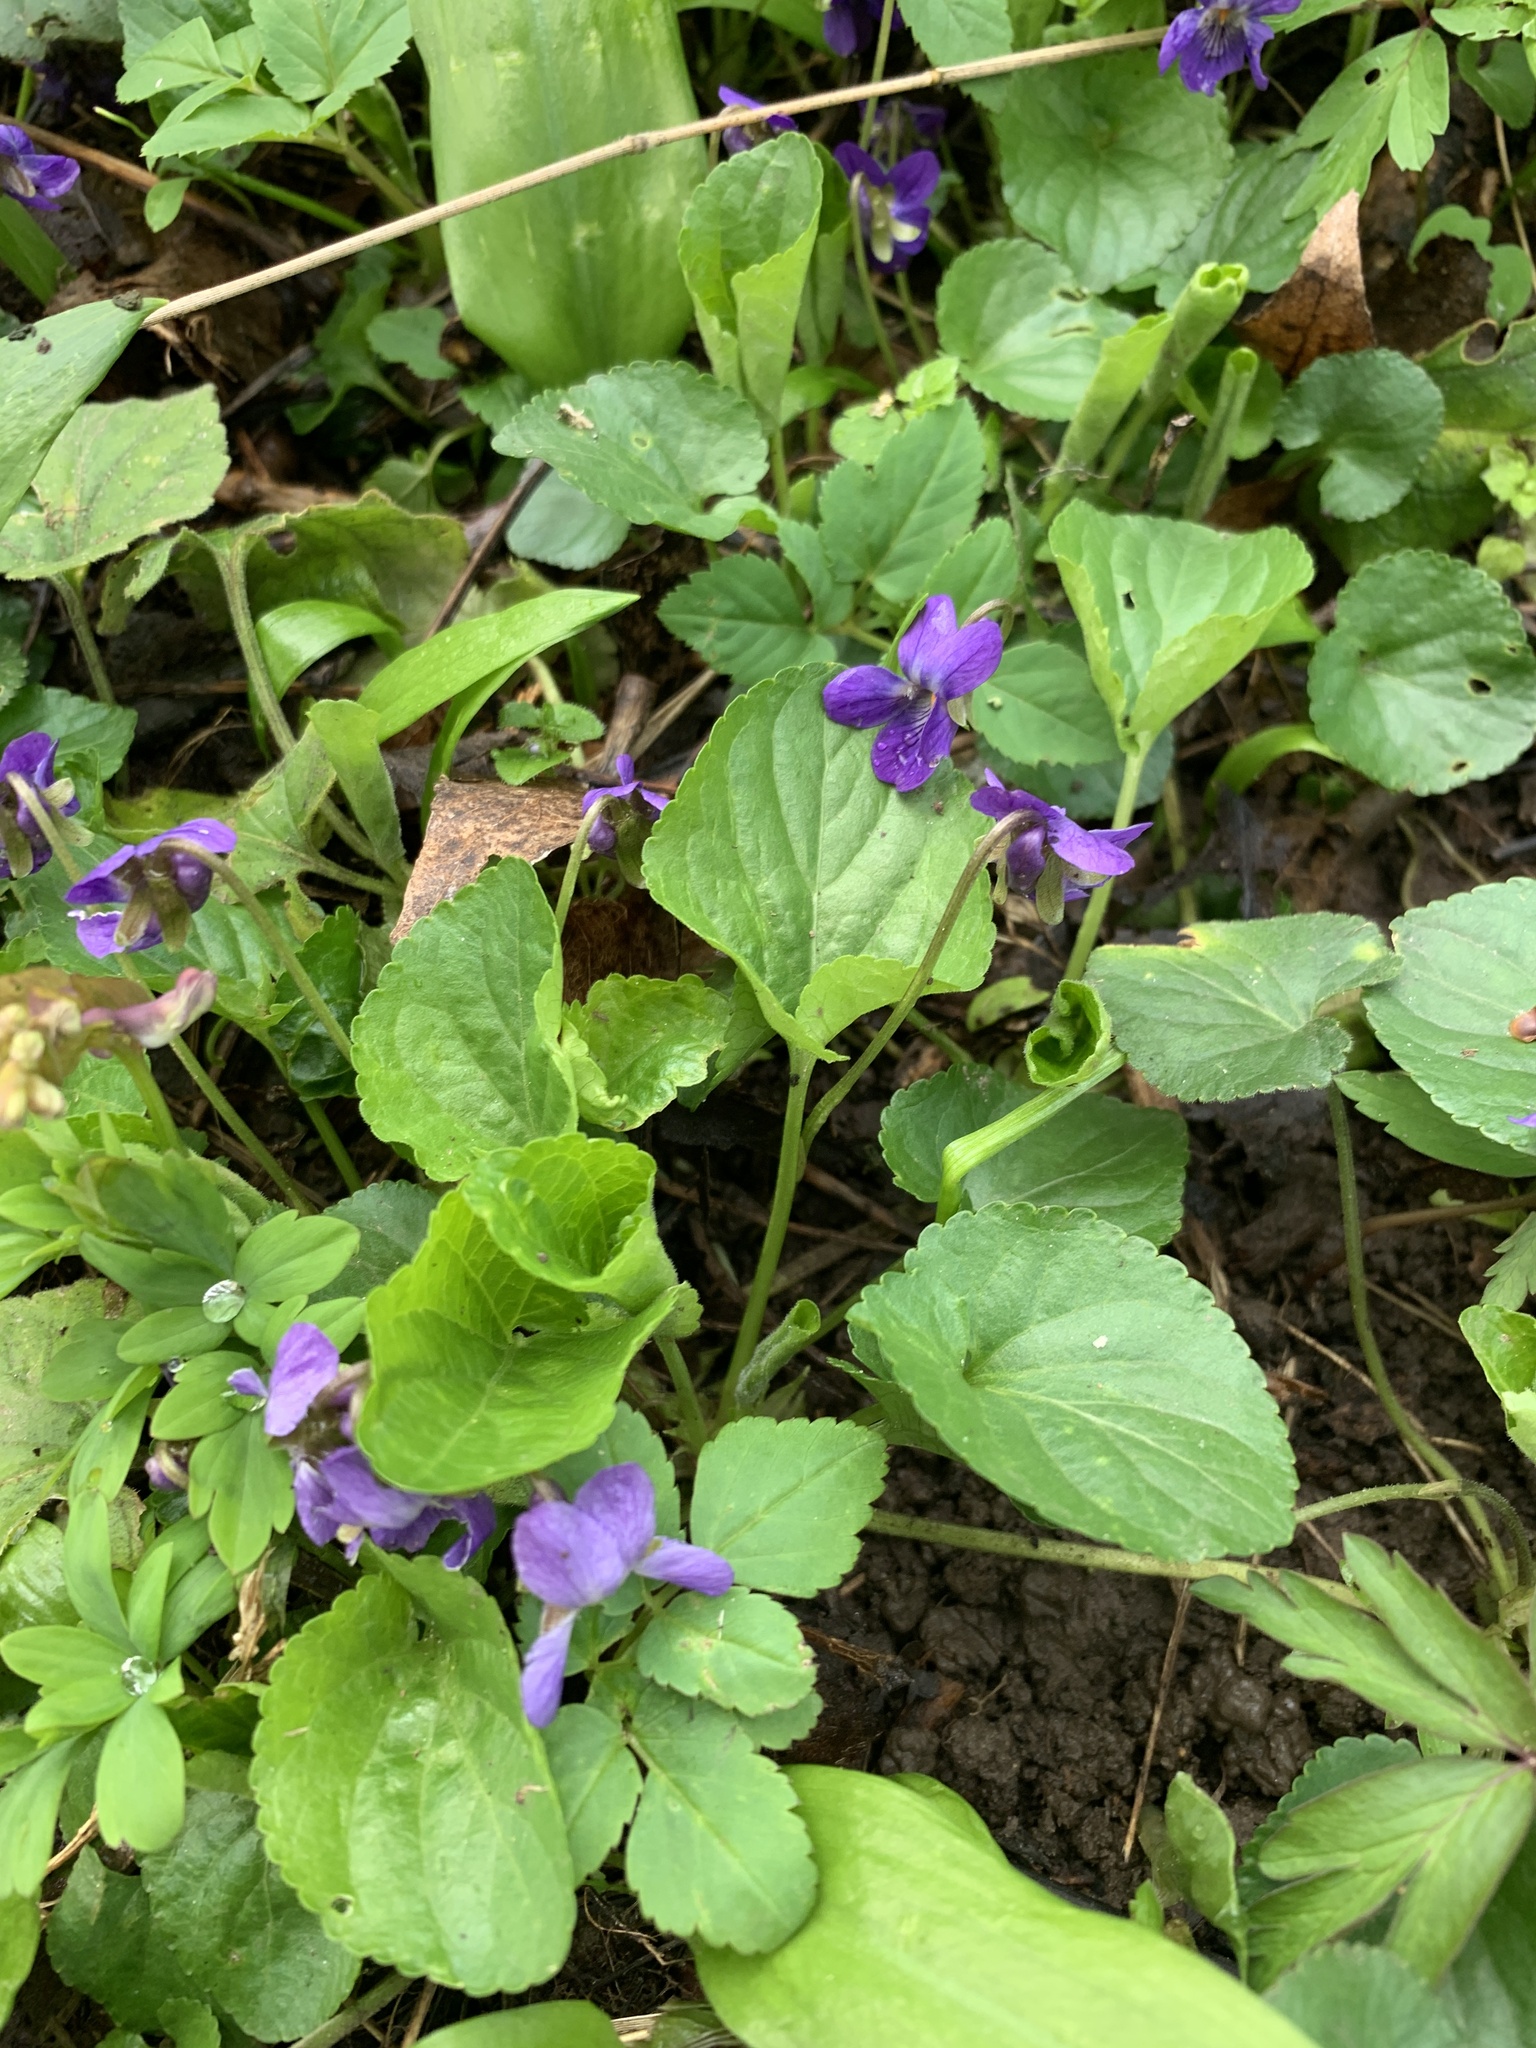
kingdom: Plantae
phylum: Tracheophyta
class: Magnoliopsida
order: Malpighiales
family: Violaceae
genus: Viola
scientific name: Viola odorata
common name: Sweet violet
